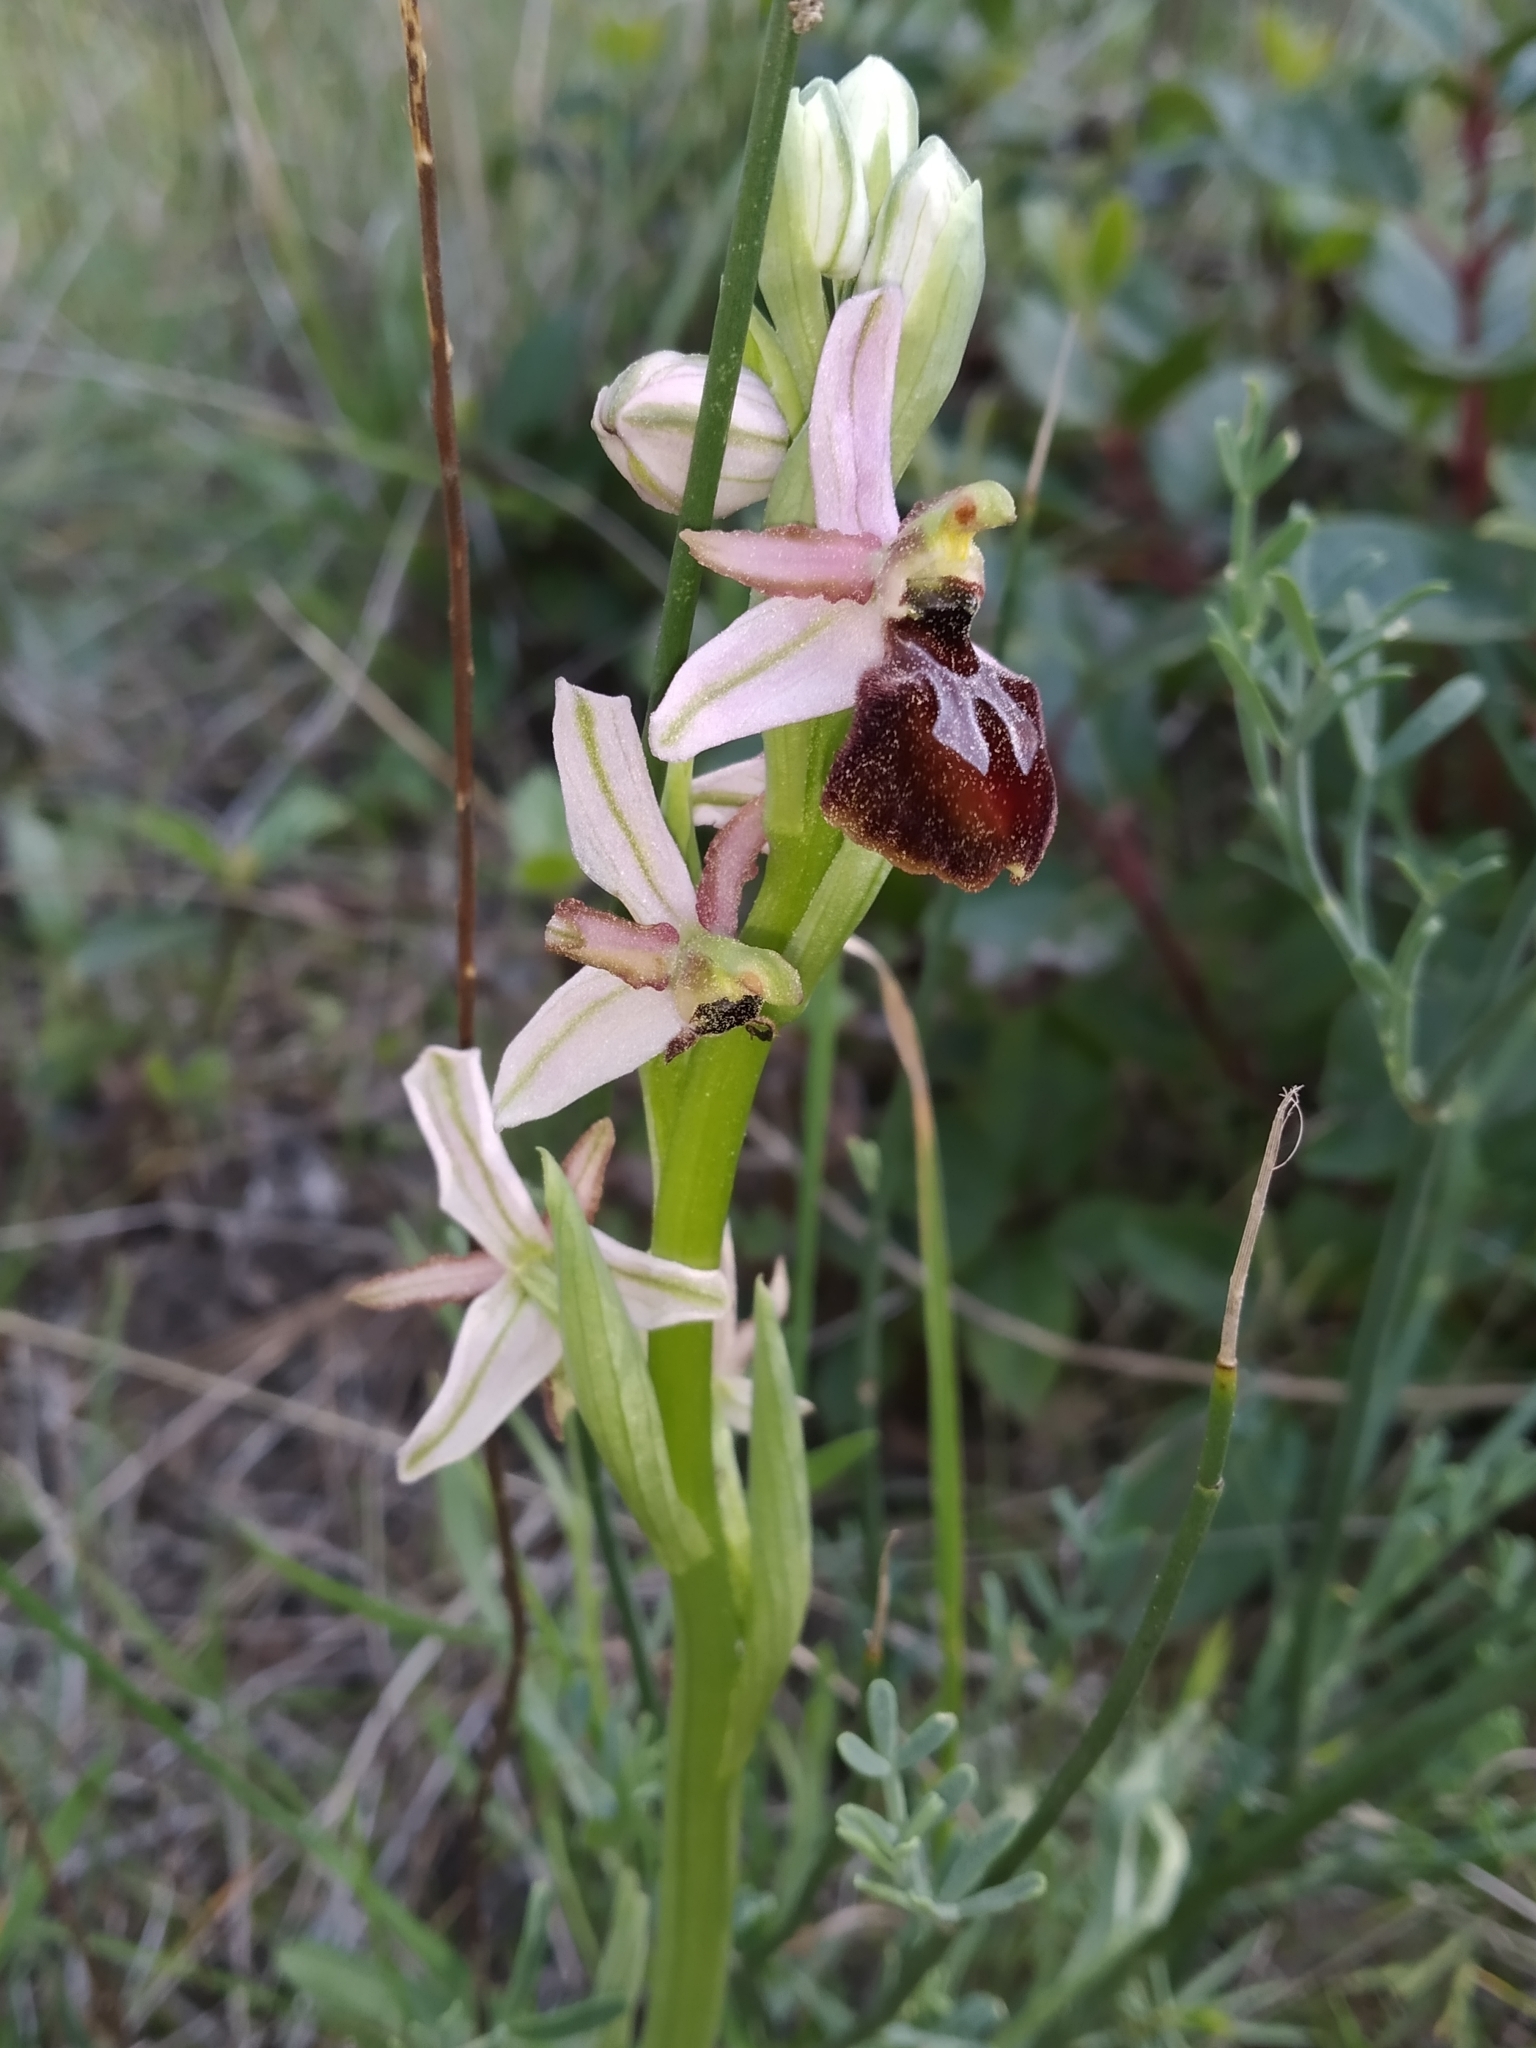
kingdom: Plantae
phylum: Tracheophyta
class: Liliopsida
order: Asparagales
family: Orchidaceae
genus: Ophrys
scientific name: Ophrys arachnitiformis
